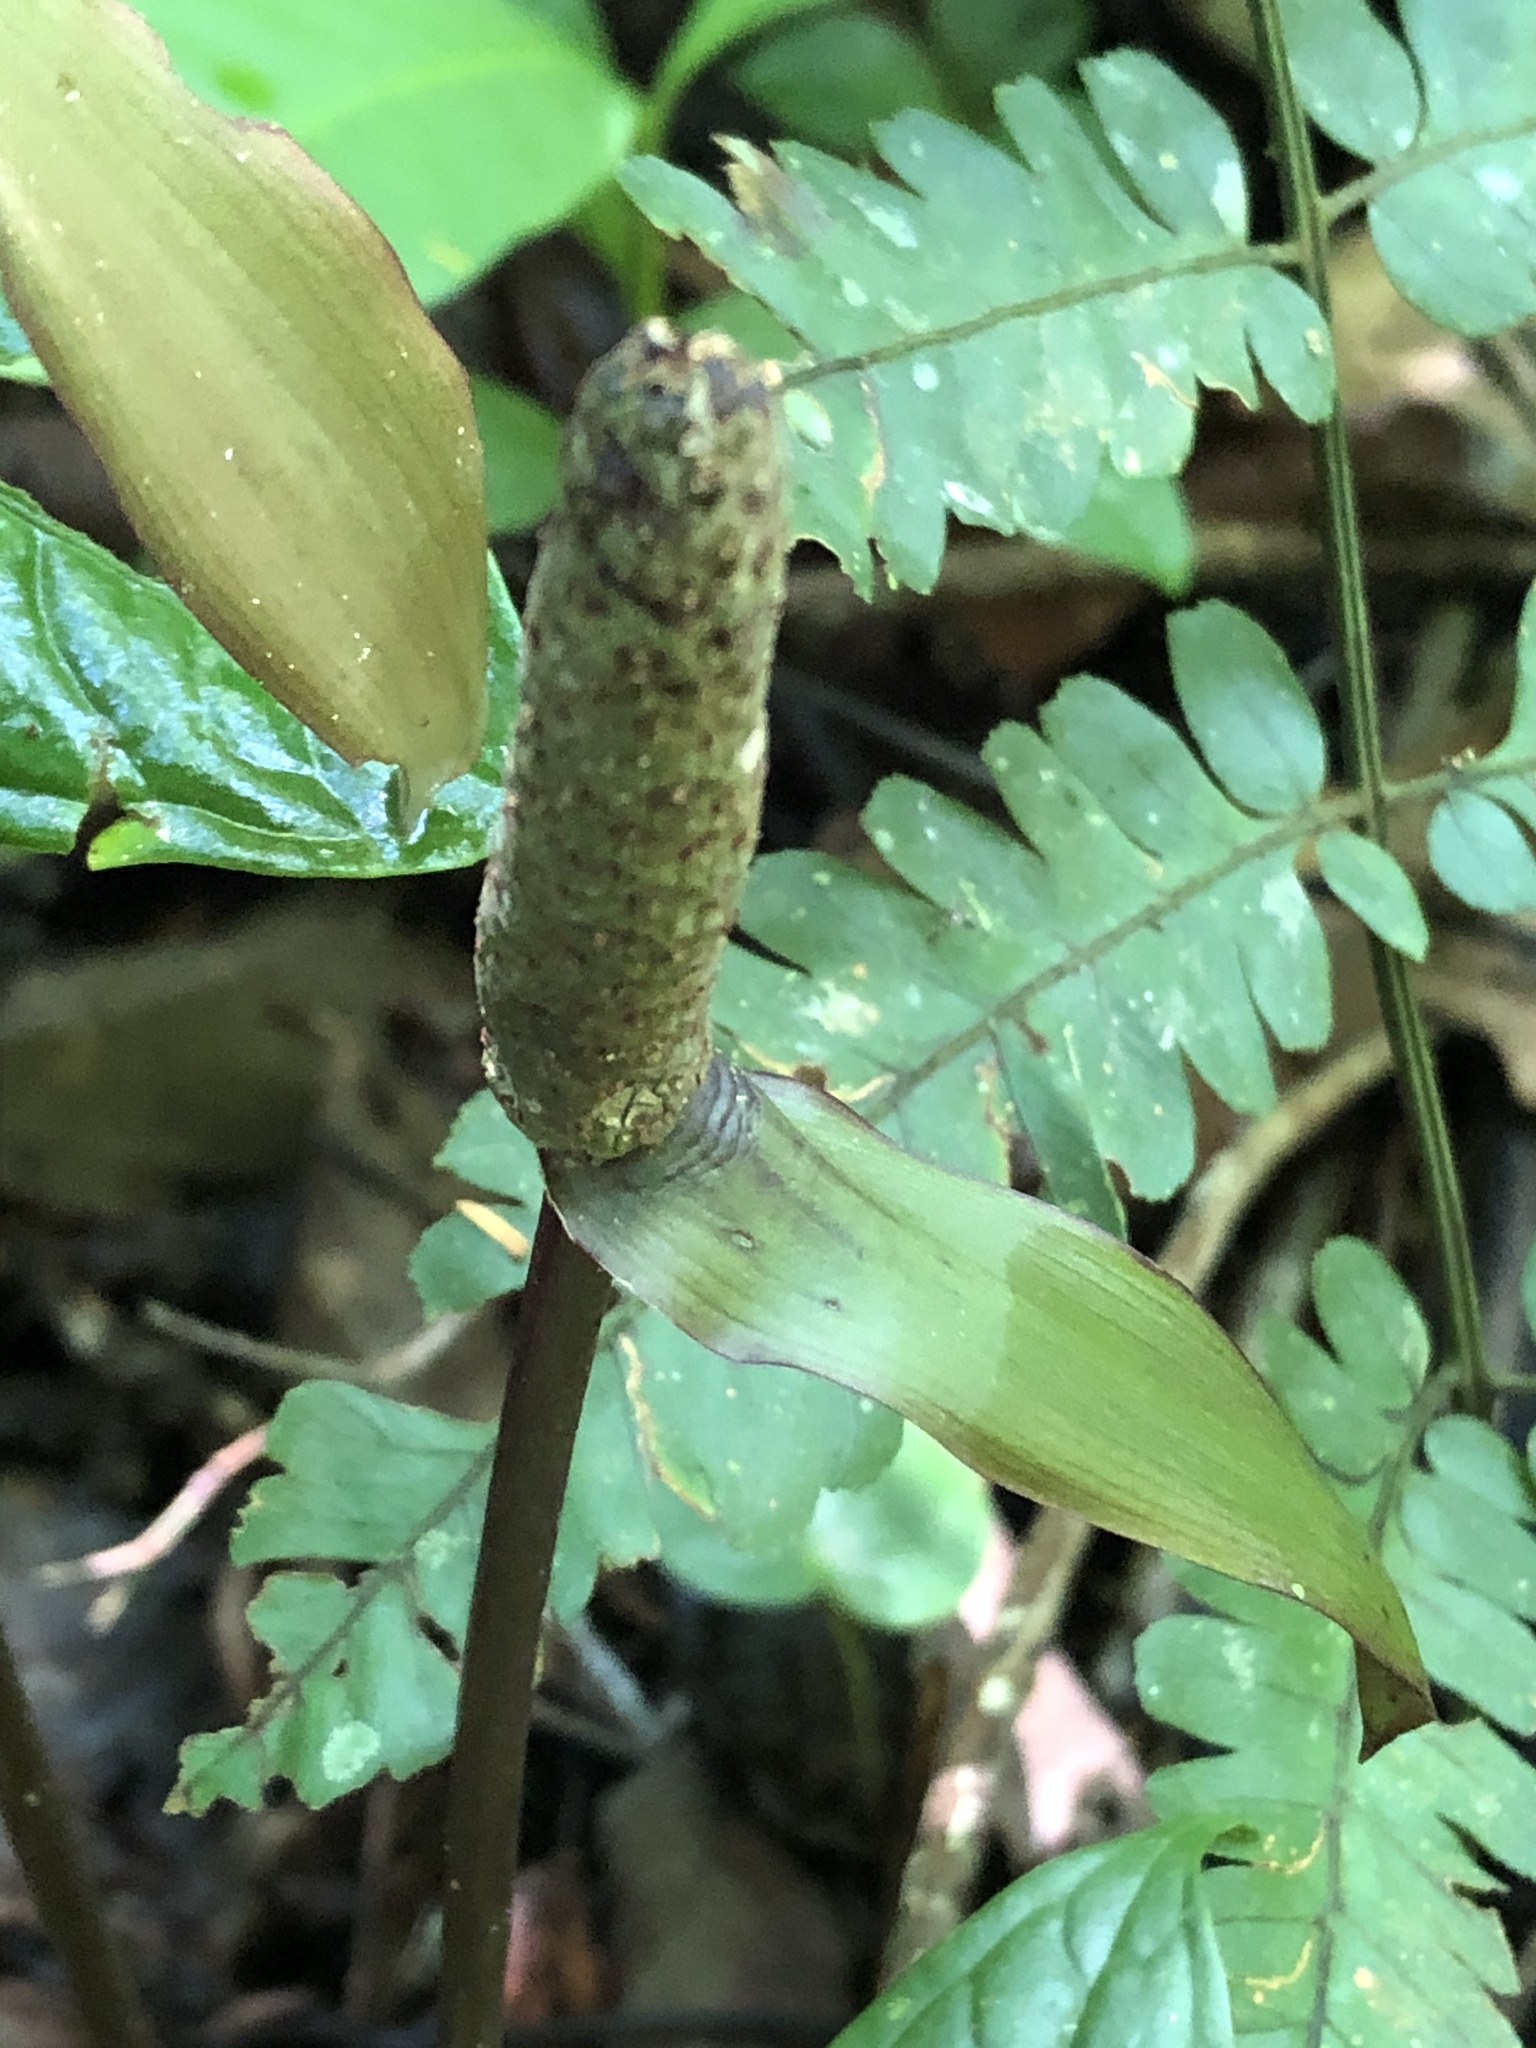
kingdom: Plantae
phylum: Tracheophyta
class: Liliopsida
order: Alismatales
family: Araceae
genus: Anthurium
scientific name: Anthurium croatii
